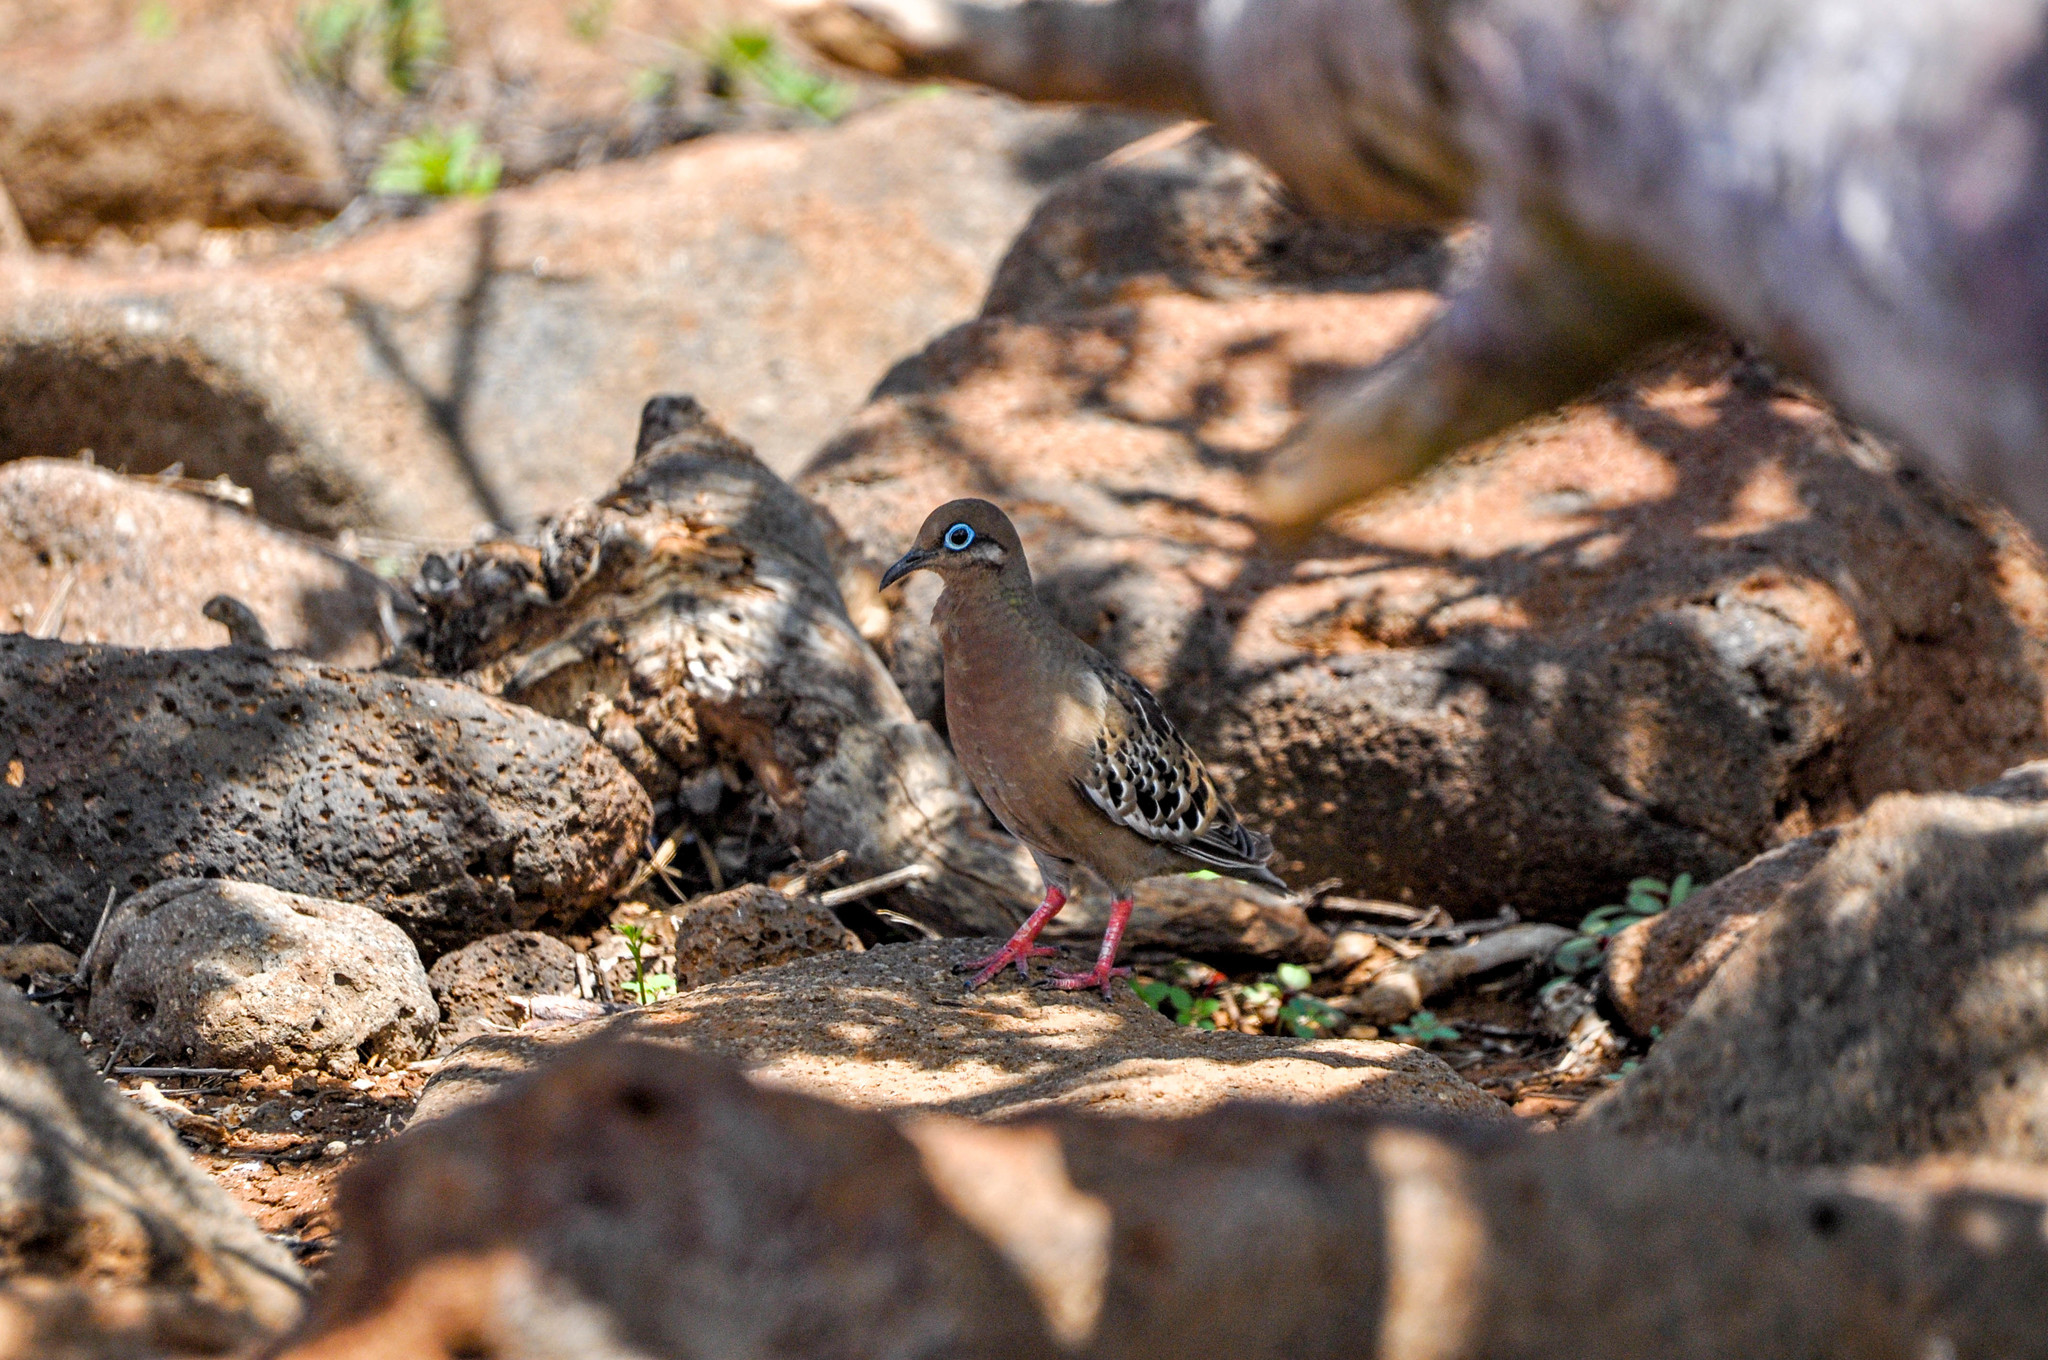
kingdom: Animalia
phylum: Chordata
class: Aves
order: Columbiformes
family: Columbidae
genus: Zenaida
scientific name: Zenaida galapagoensis
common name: Galapagos dove
